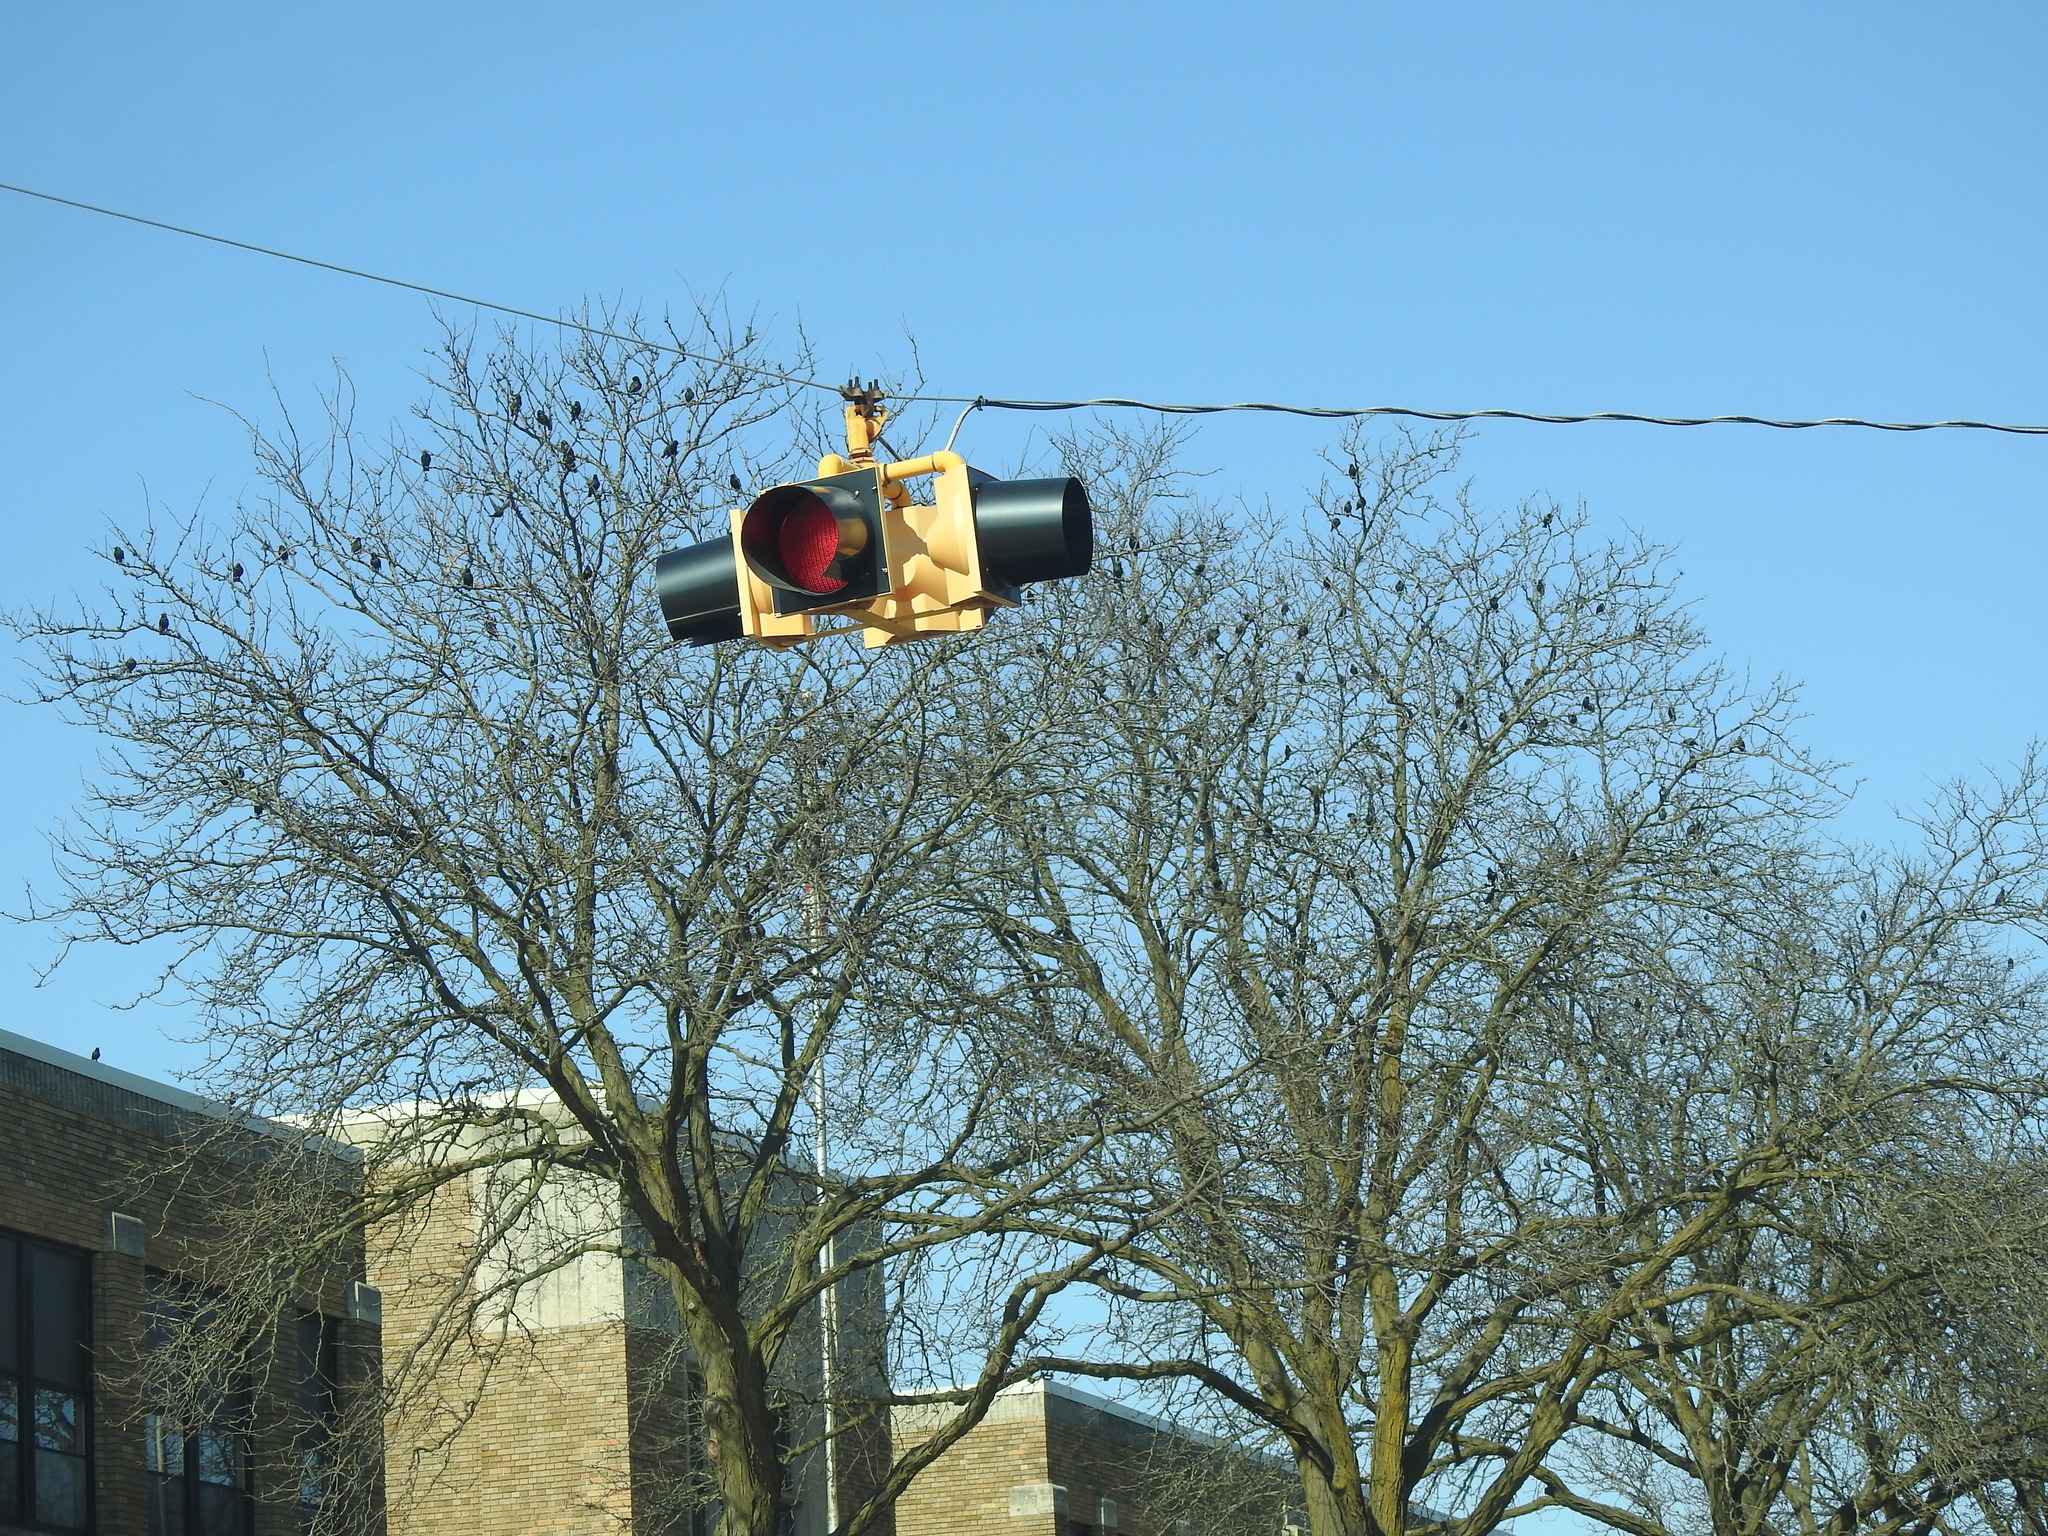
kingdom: Animalia
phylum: Chordata
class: Aves
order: Passeriformes
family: Sturnidae
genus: Sturnus
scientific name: Sturnus vulgaris
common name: Common starling
